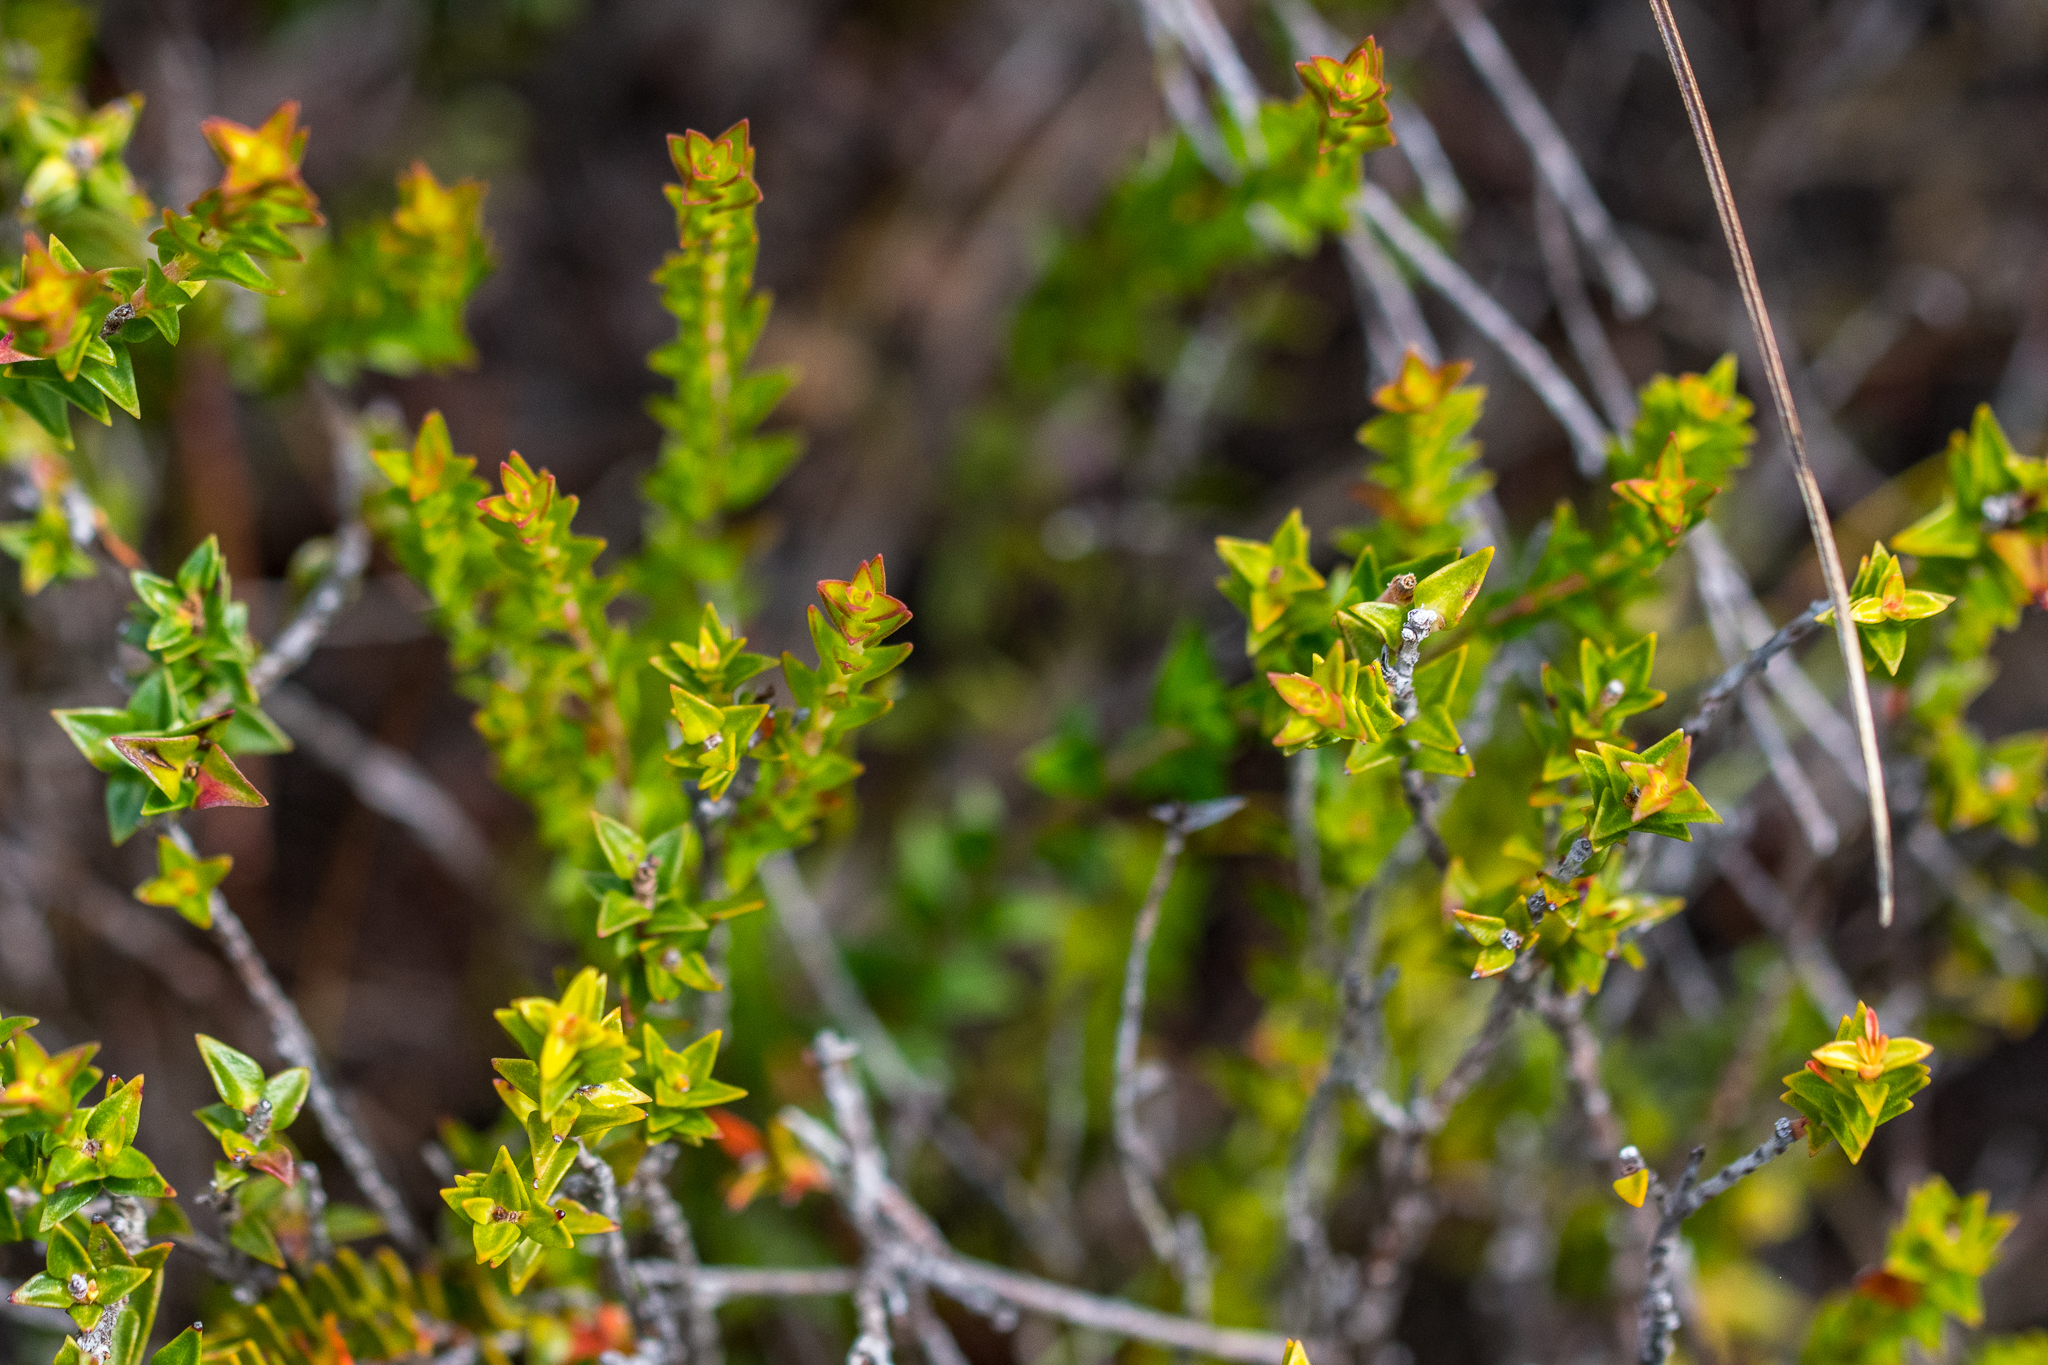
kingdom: Plantae
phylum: Tracheophyta
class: Magnoliopsida
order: Myrtales
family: Penaeaceae
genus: Penaea
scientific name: Penaea mucronata
